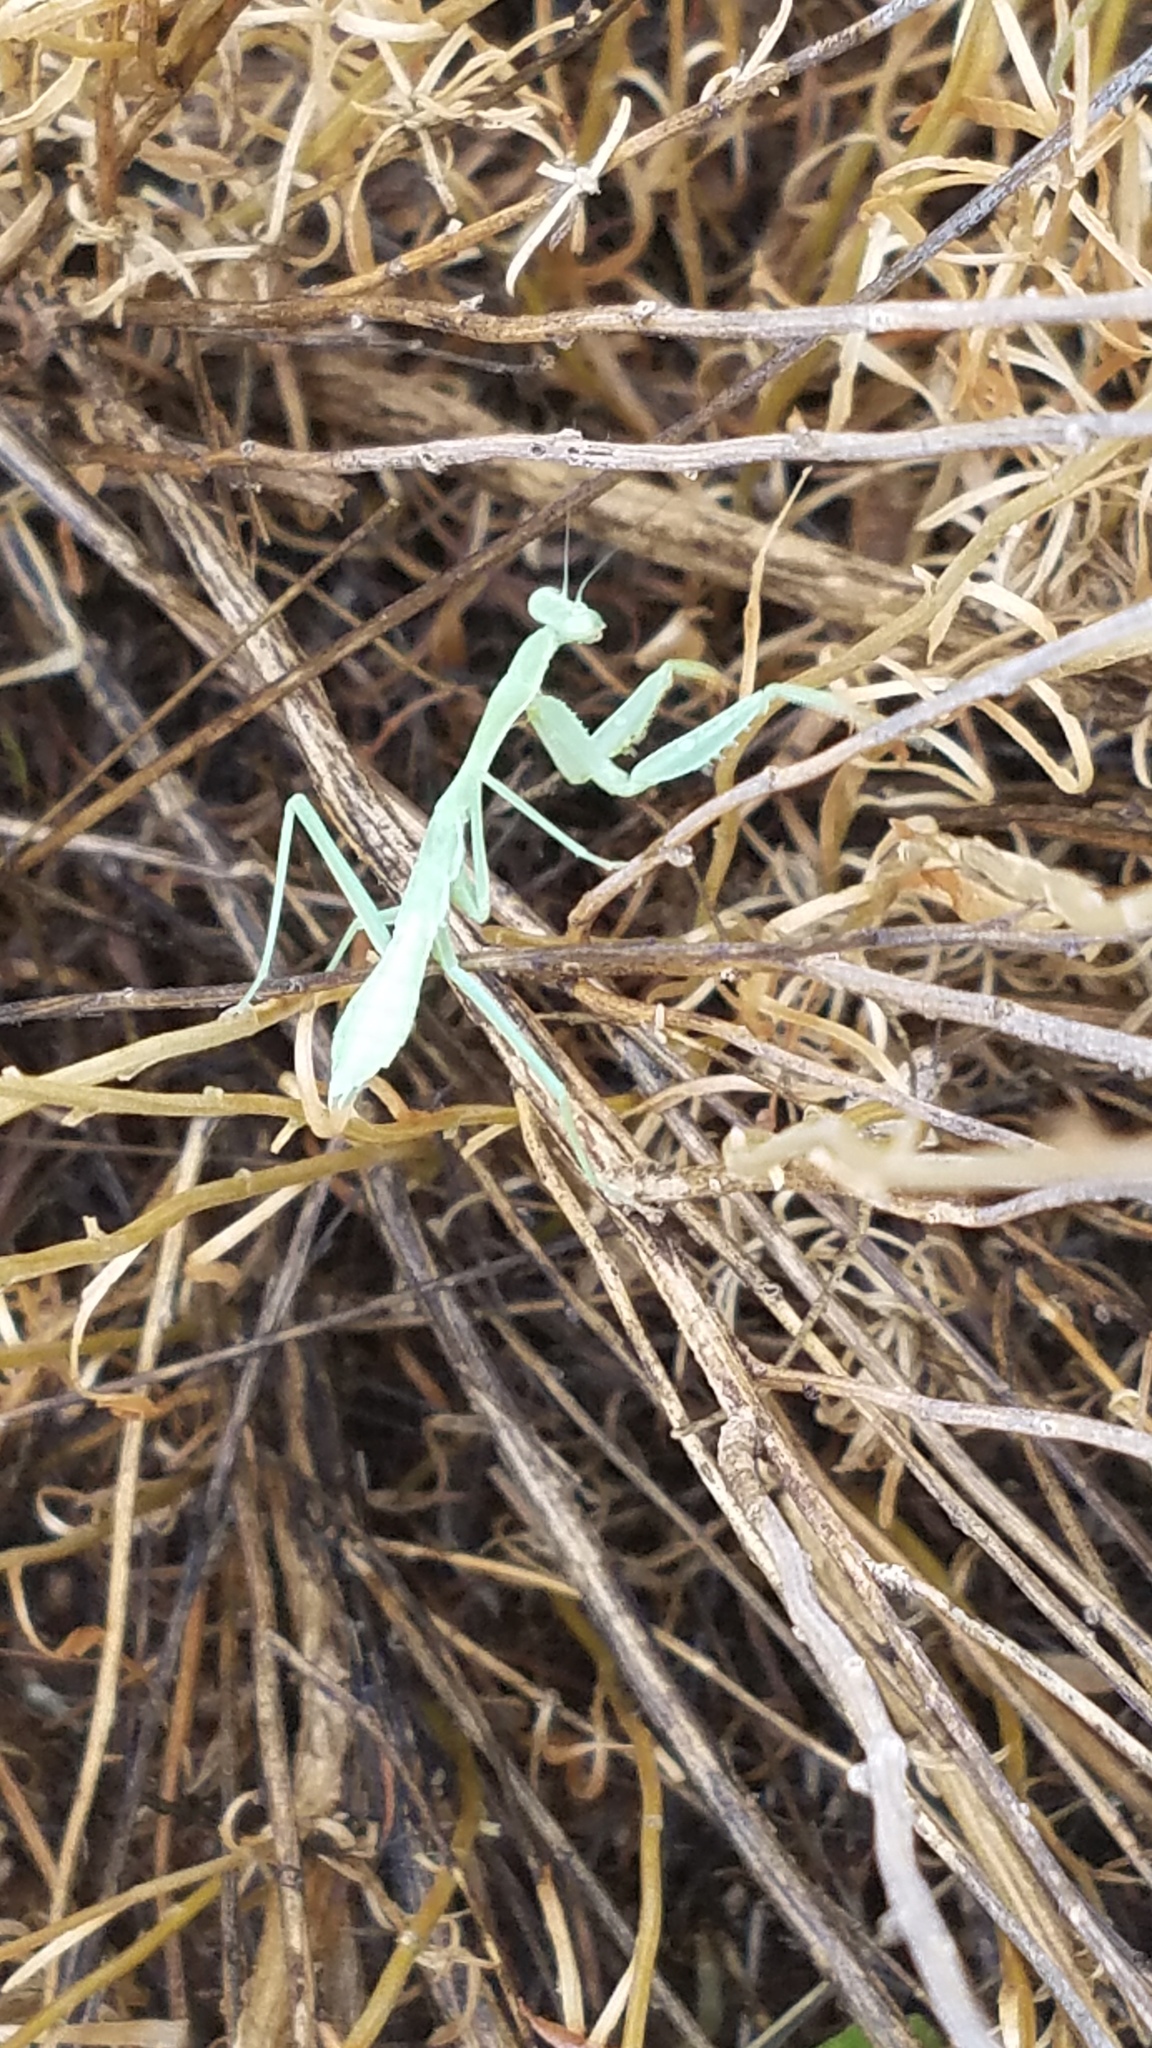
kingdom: Animalia
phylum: Arthropoda
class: Insecta
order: Mantodea
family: Mantidae
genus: Stagmomantis
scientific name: Stagmomantis limbata
